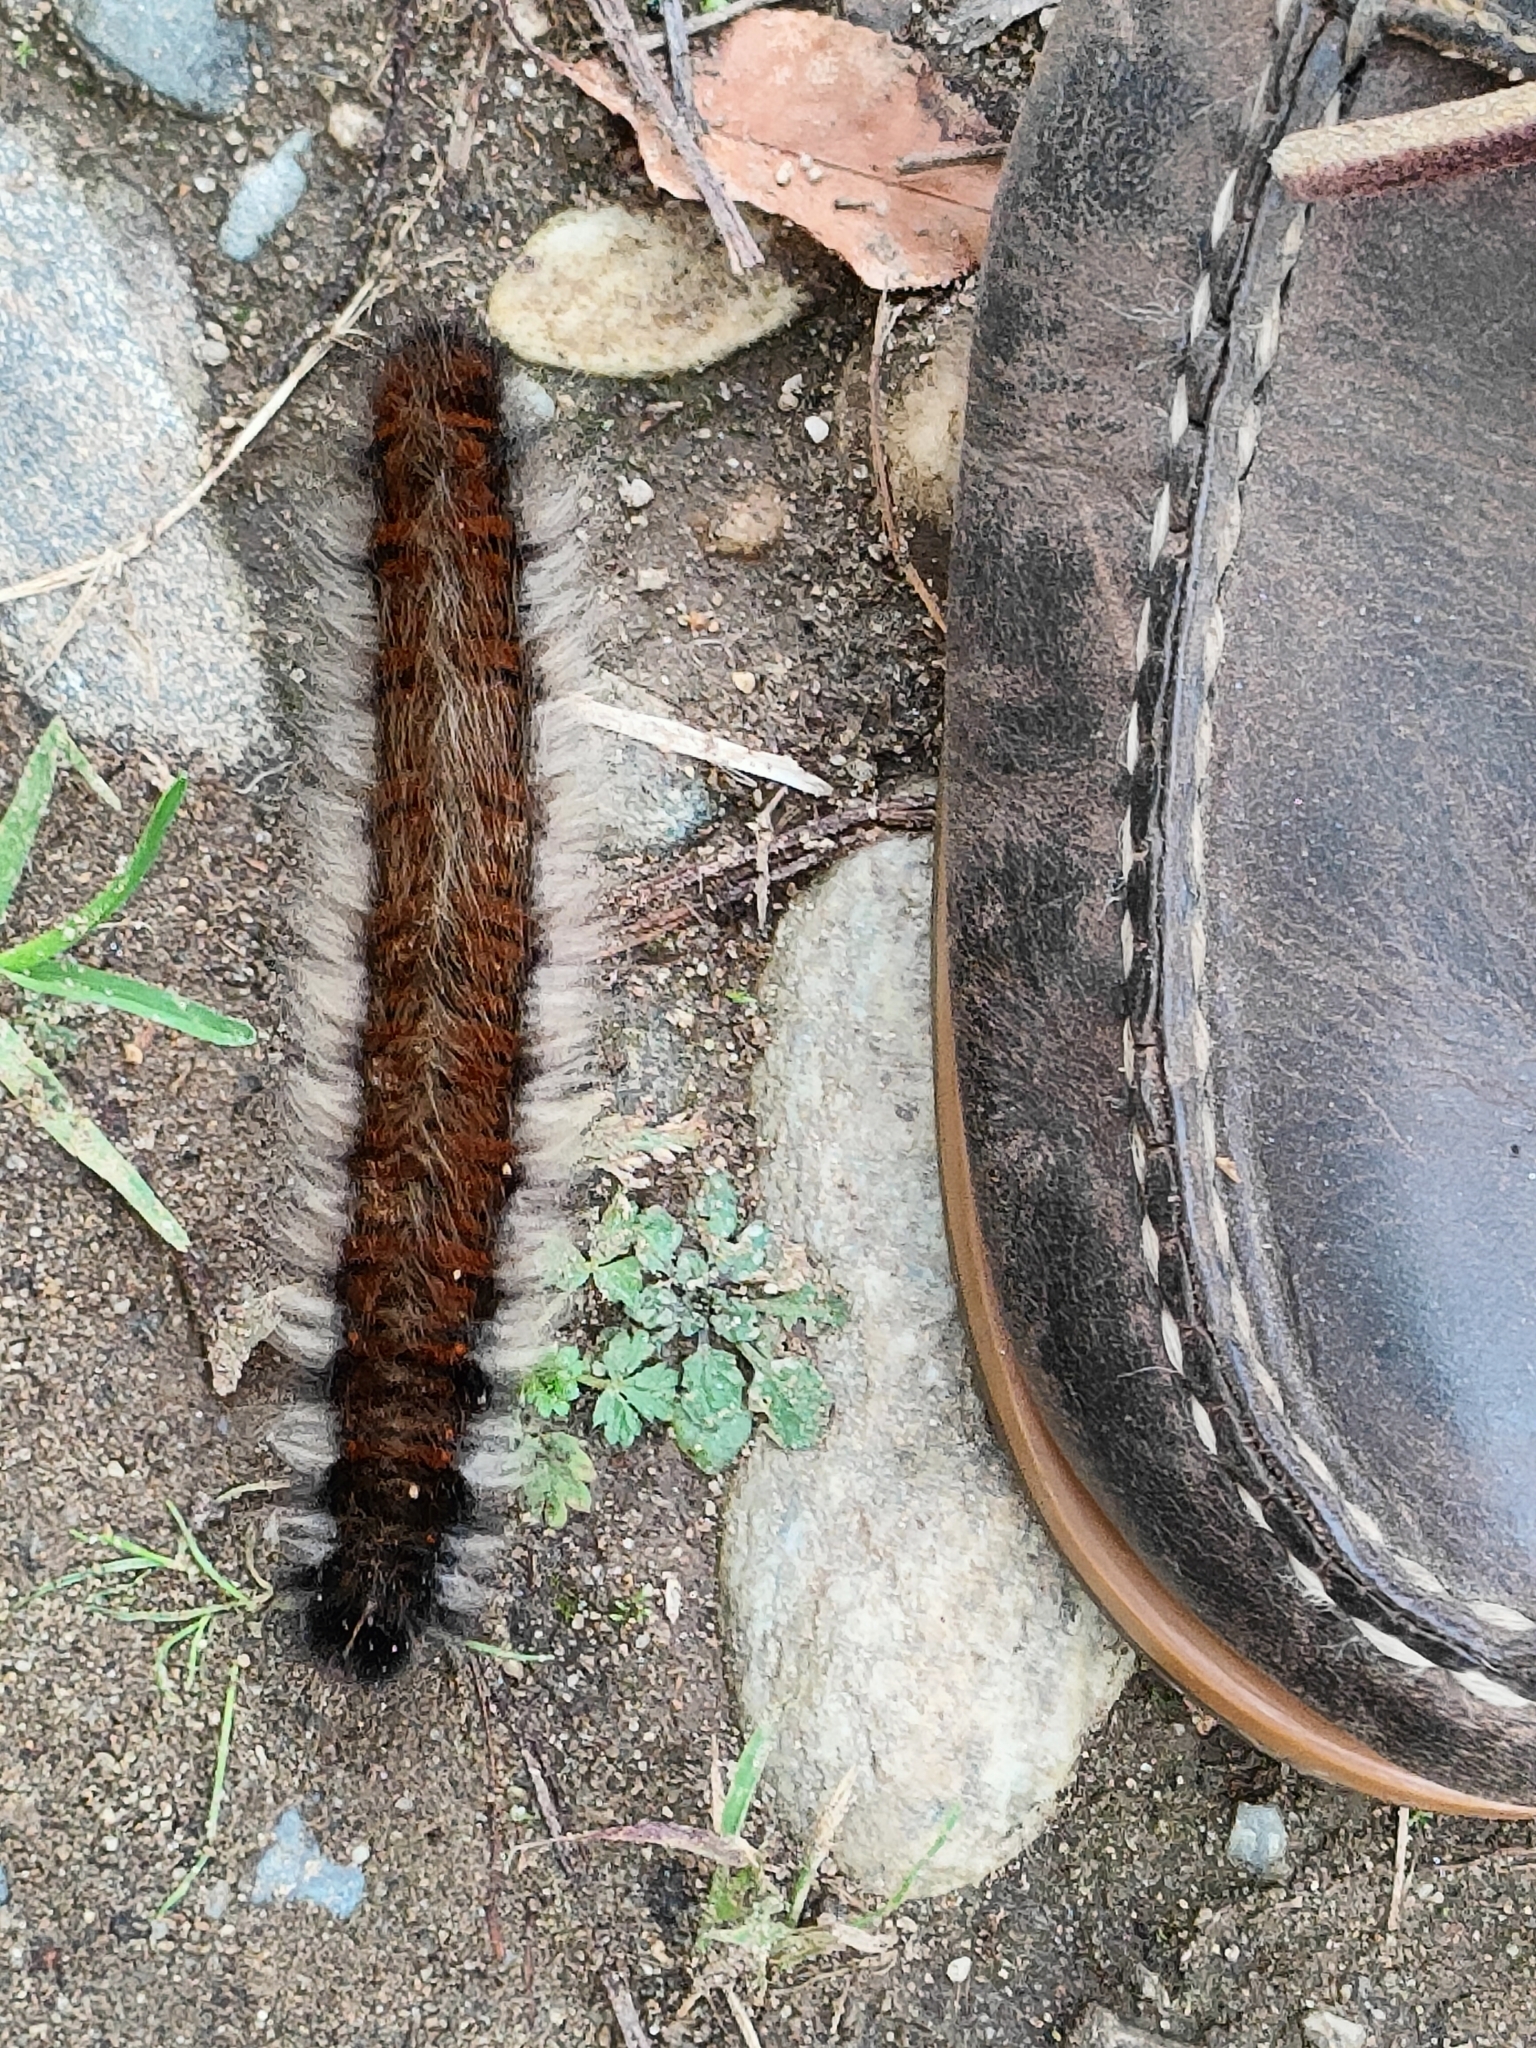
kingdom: Animalia
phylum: Arthropoda
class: Insecta
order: Lepidoptera
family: Lasiocampidae
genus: Macrothylacia
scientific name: Macrothylacia rubi
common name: Fox moth
